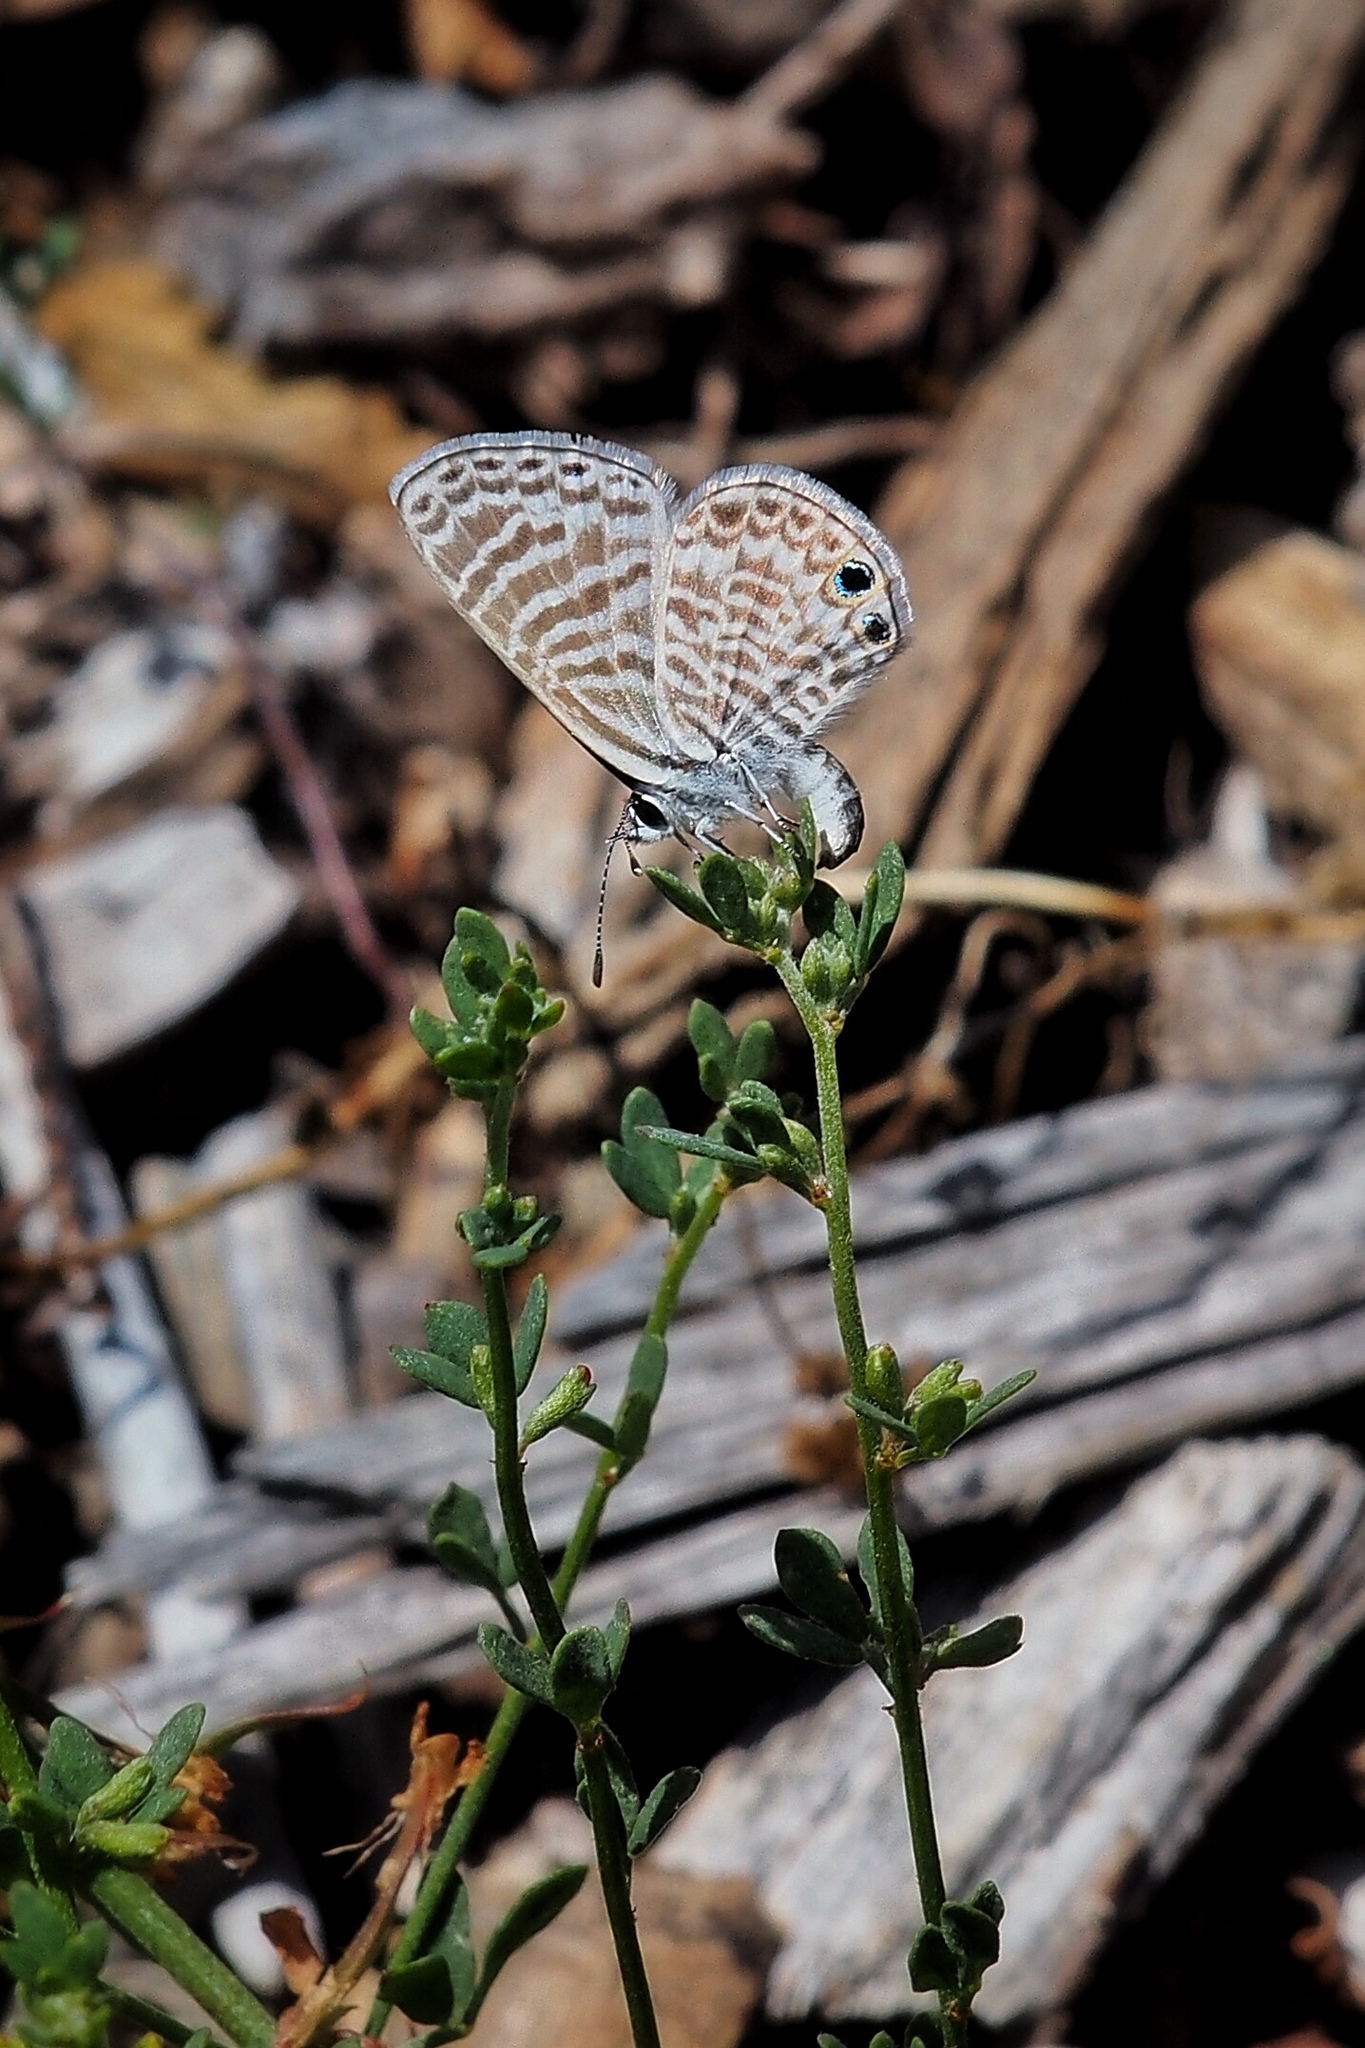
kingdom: Animalia
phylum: Arthropoda
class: Insecta
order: Lepidoptera
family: Lycaenidae
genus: Leptotes
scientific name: Leptotes marina
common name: Marine blue
